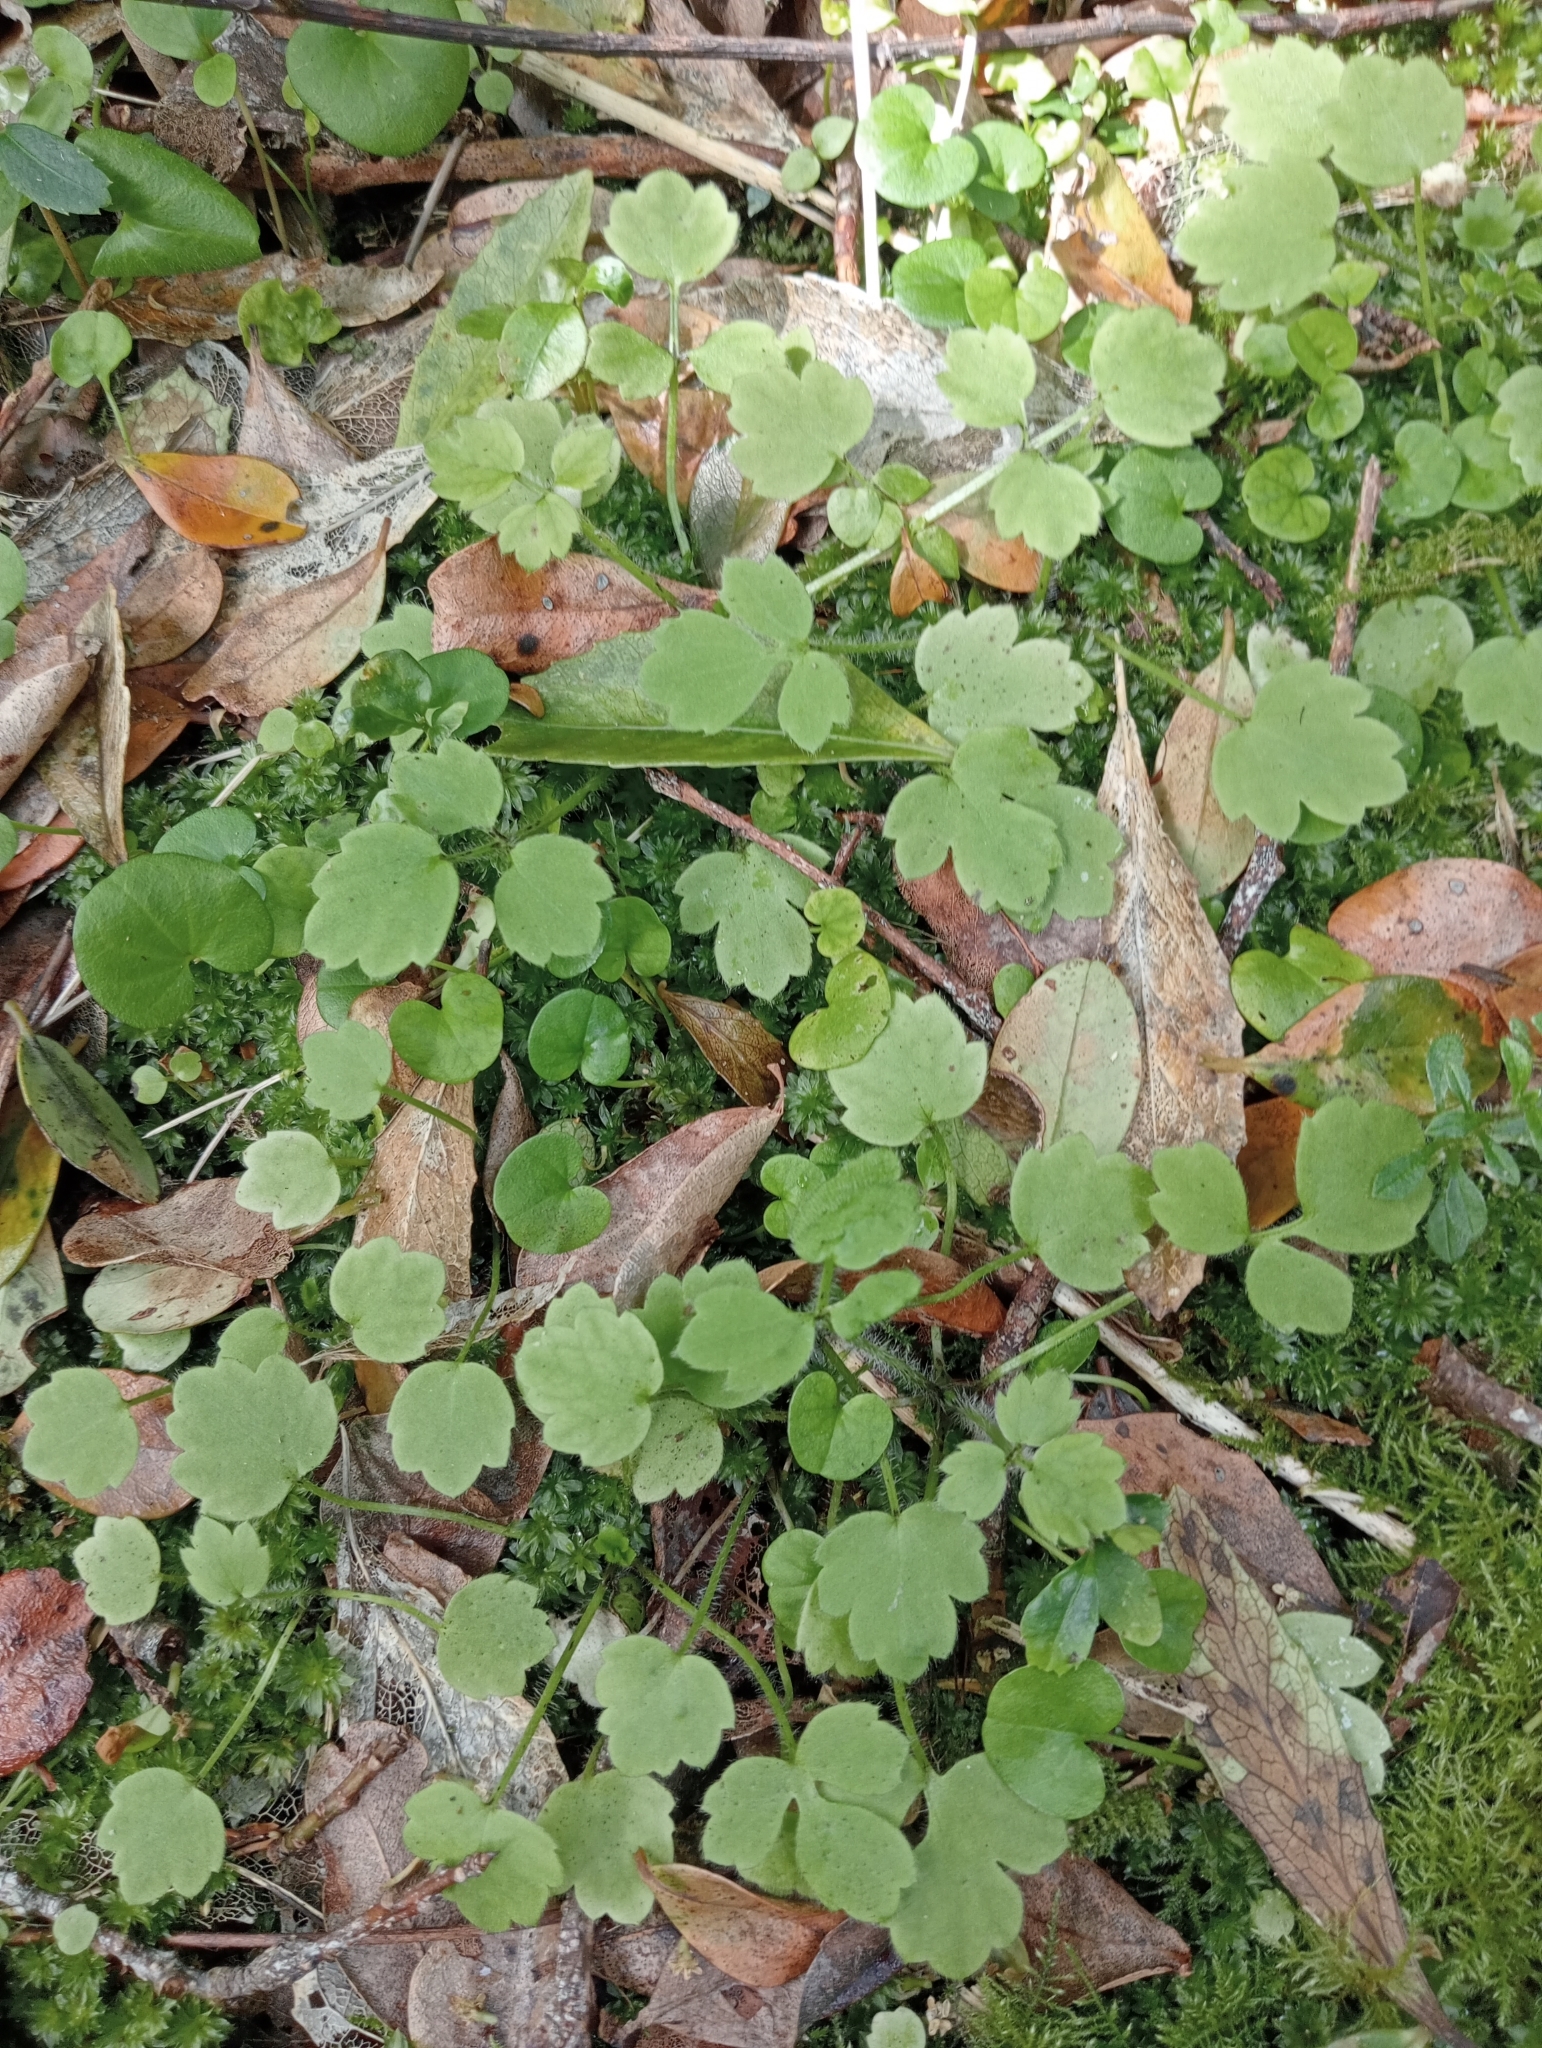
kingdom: Plantae
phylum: Tracheophyta
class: Magnoliopsida
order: Ranunculales
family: Ranunculaceae
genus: Ranunculus
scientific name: Ranunculus reflexus
